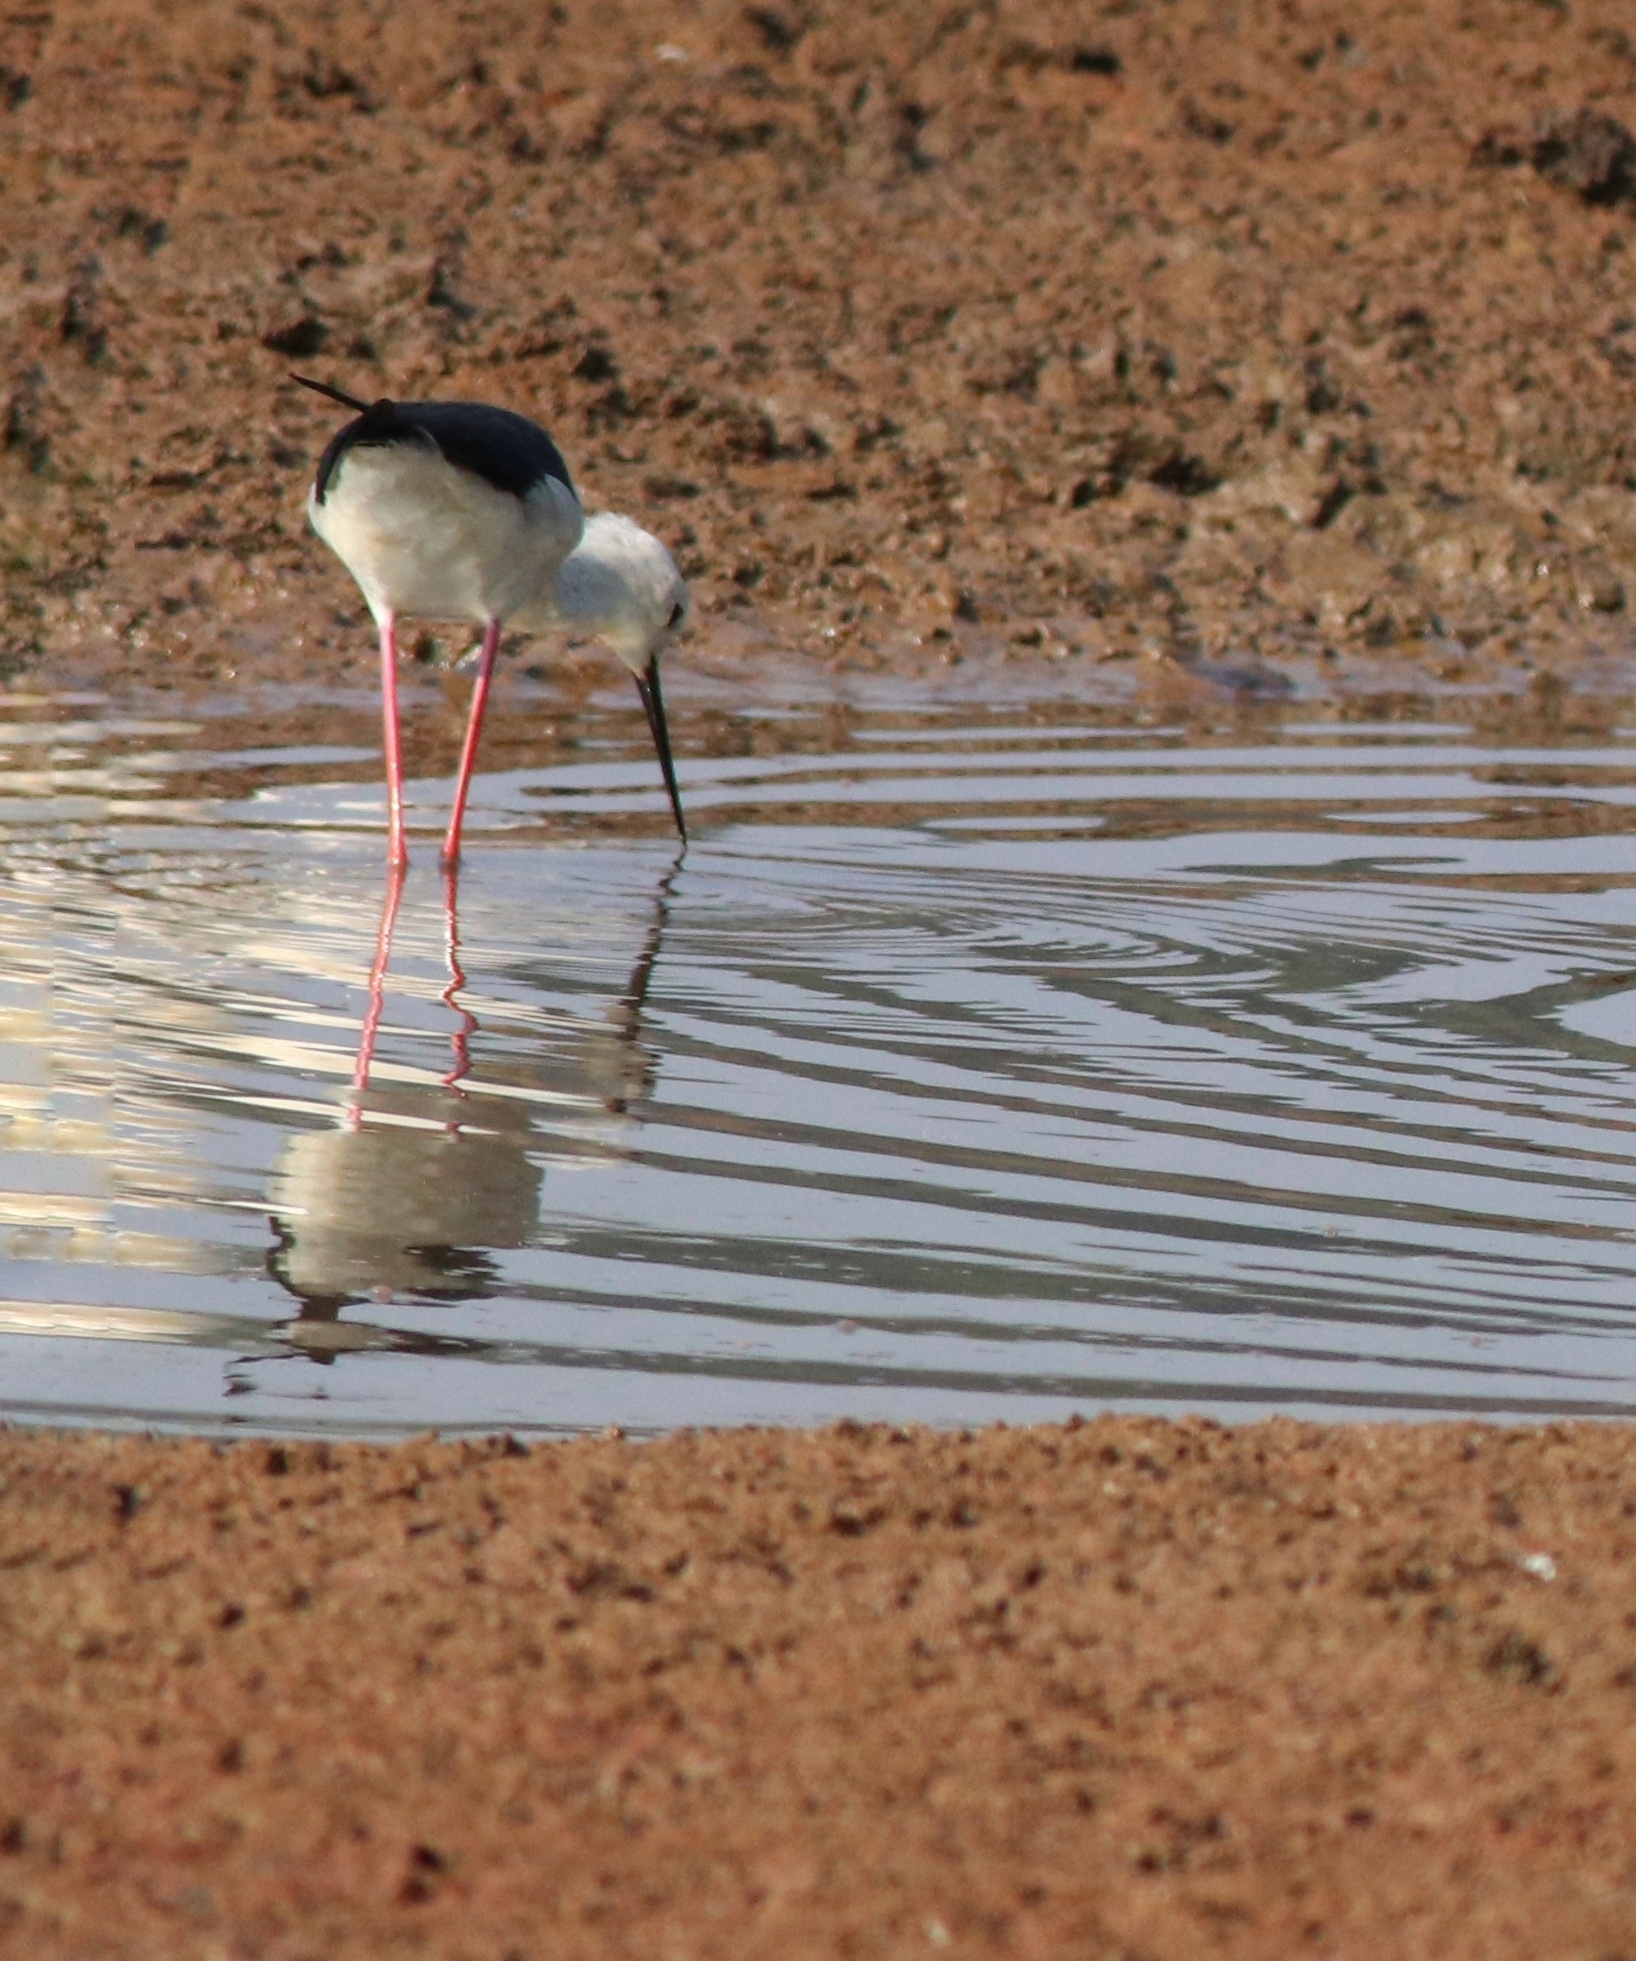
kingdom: Animalia
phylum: Chordata
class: Aves
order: Charadriiformes
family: Recurvirostridae
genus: Himantopus
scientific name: Himantopus himantopus
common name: Black-winged stilt
